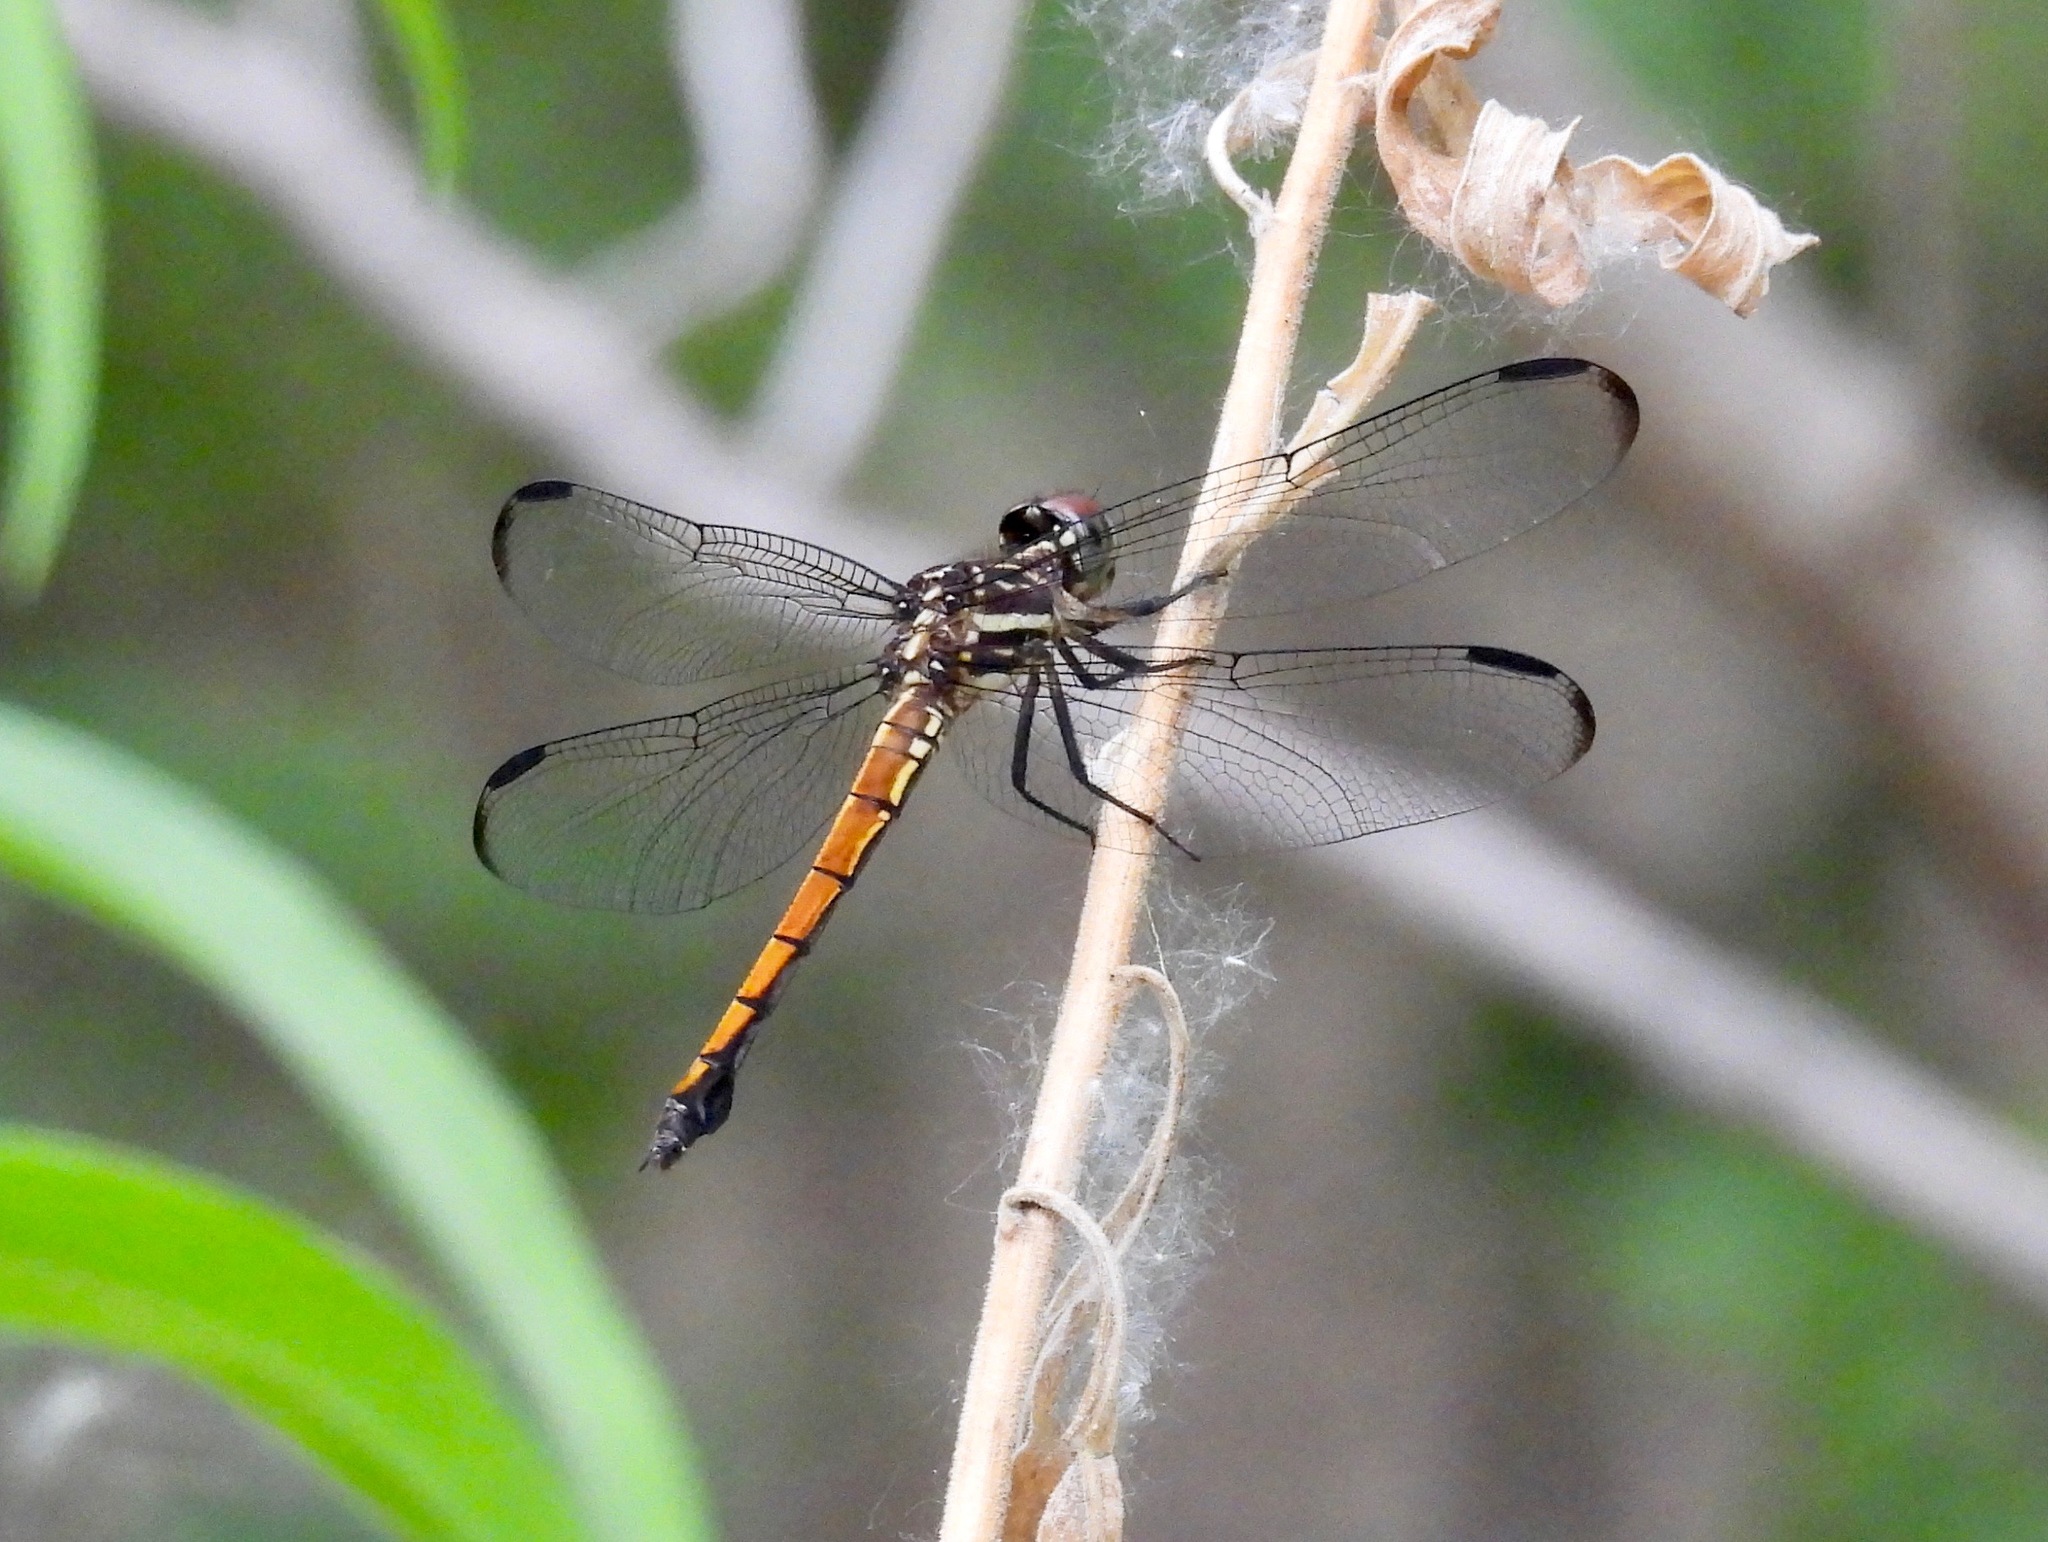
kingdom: Animalia
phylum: Arthropoda
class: Insecta
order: Odonata
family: Libellulidae
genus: Cannaphila
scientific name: Cannaphila insularis
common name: Gray-waisted skimmer
